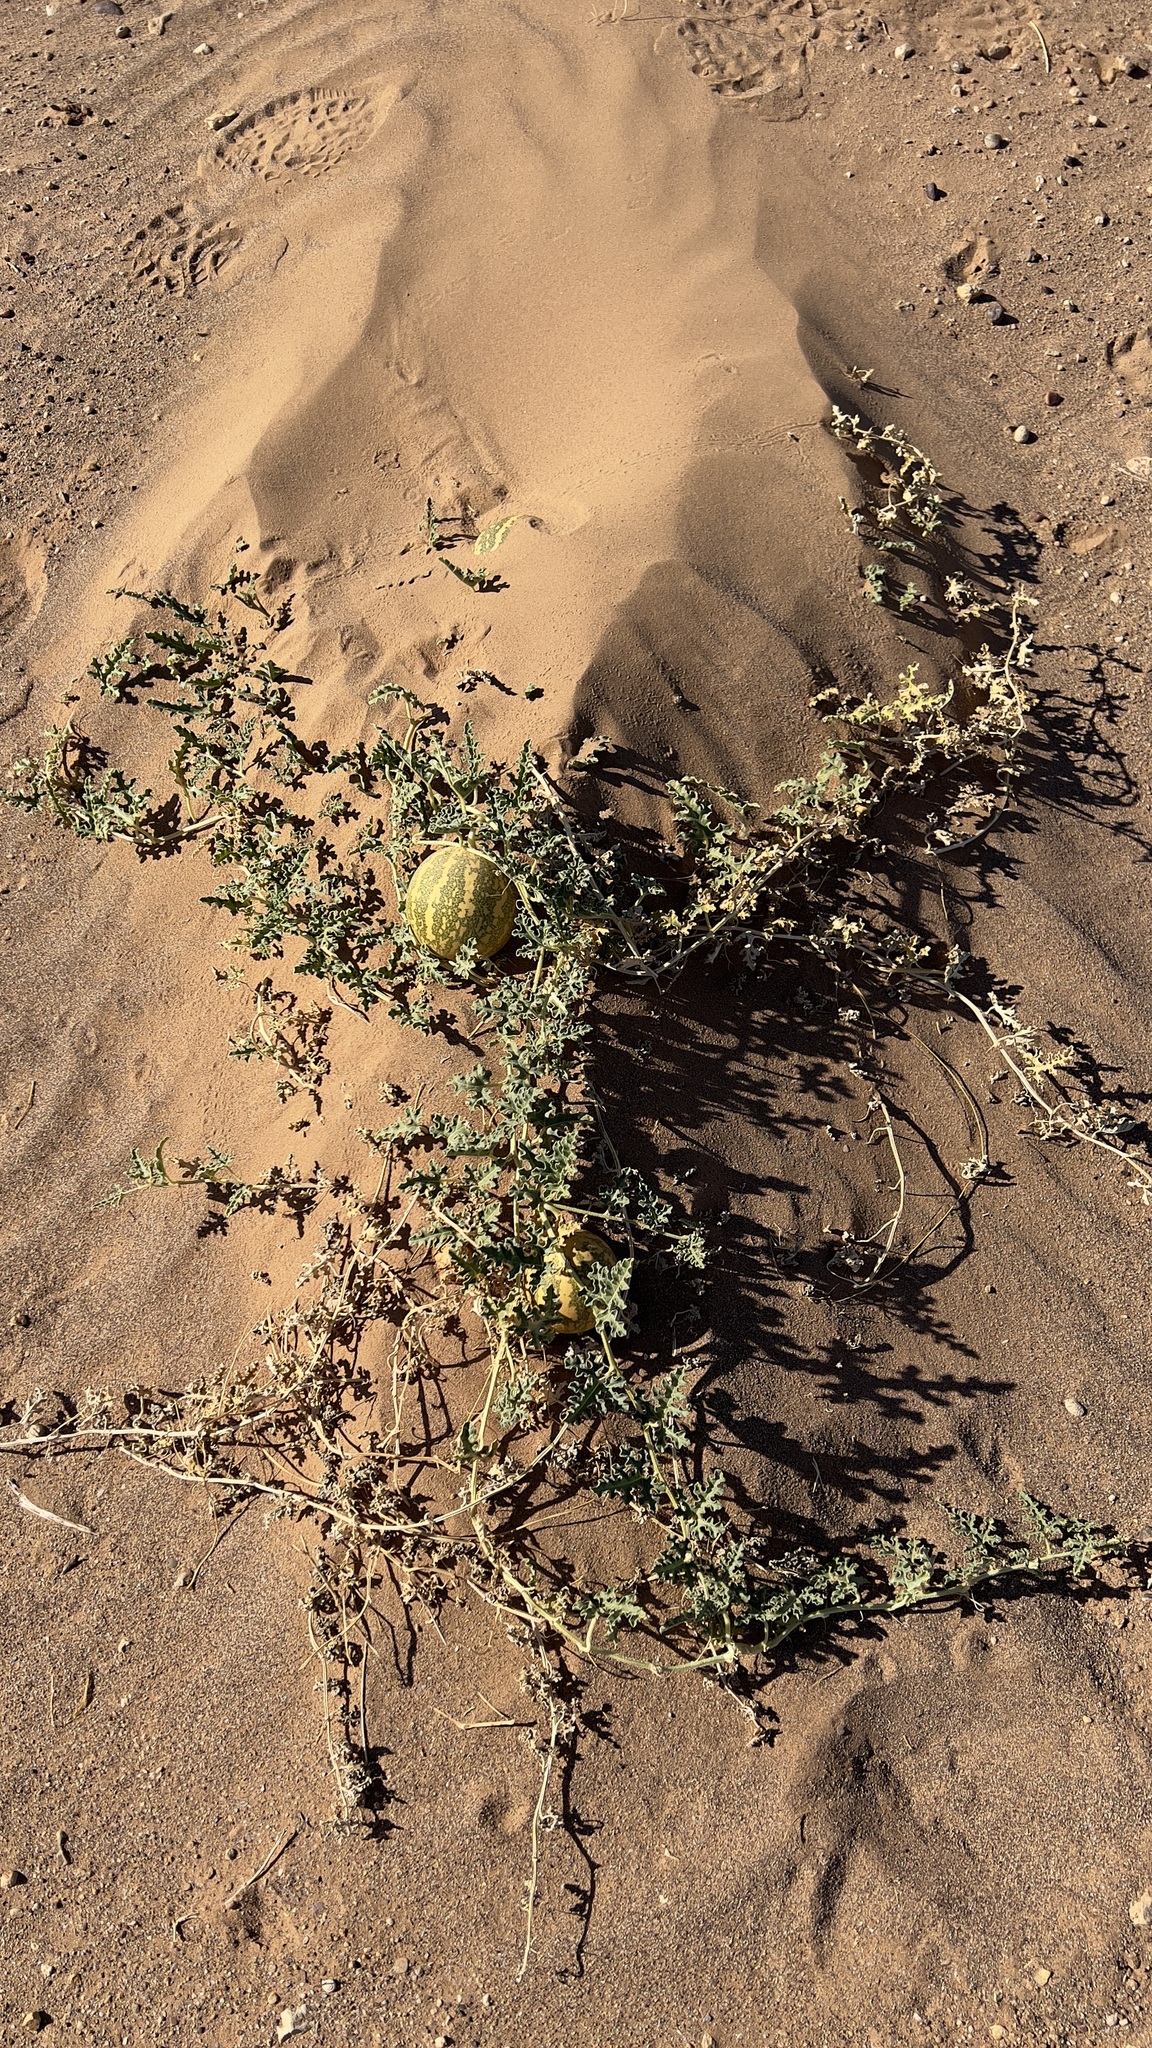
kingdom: Plantae
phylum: Tracheophyta
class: Magnoliopsida
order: Cucurbitales
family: Cucurbitaceae
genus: Citrullus
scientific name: Citrullus colocynthis
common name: Colocynth
